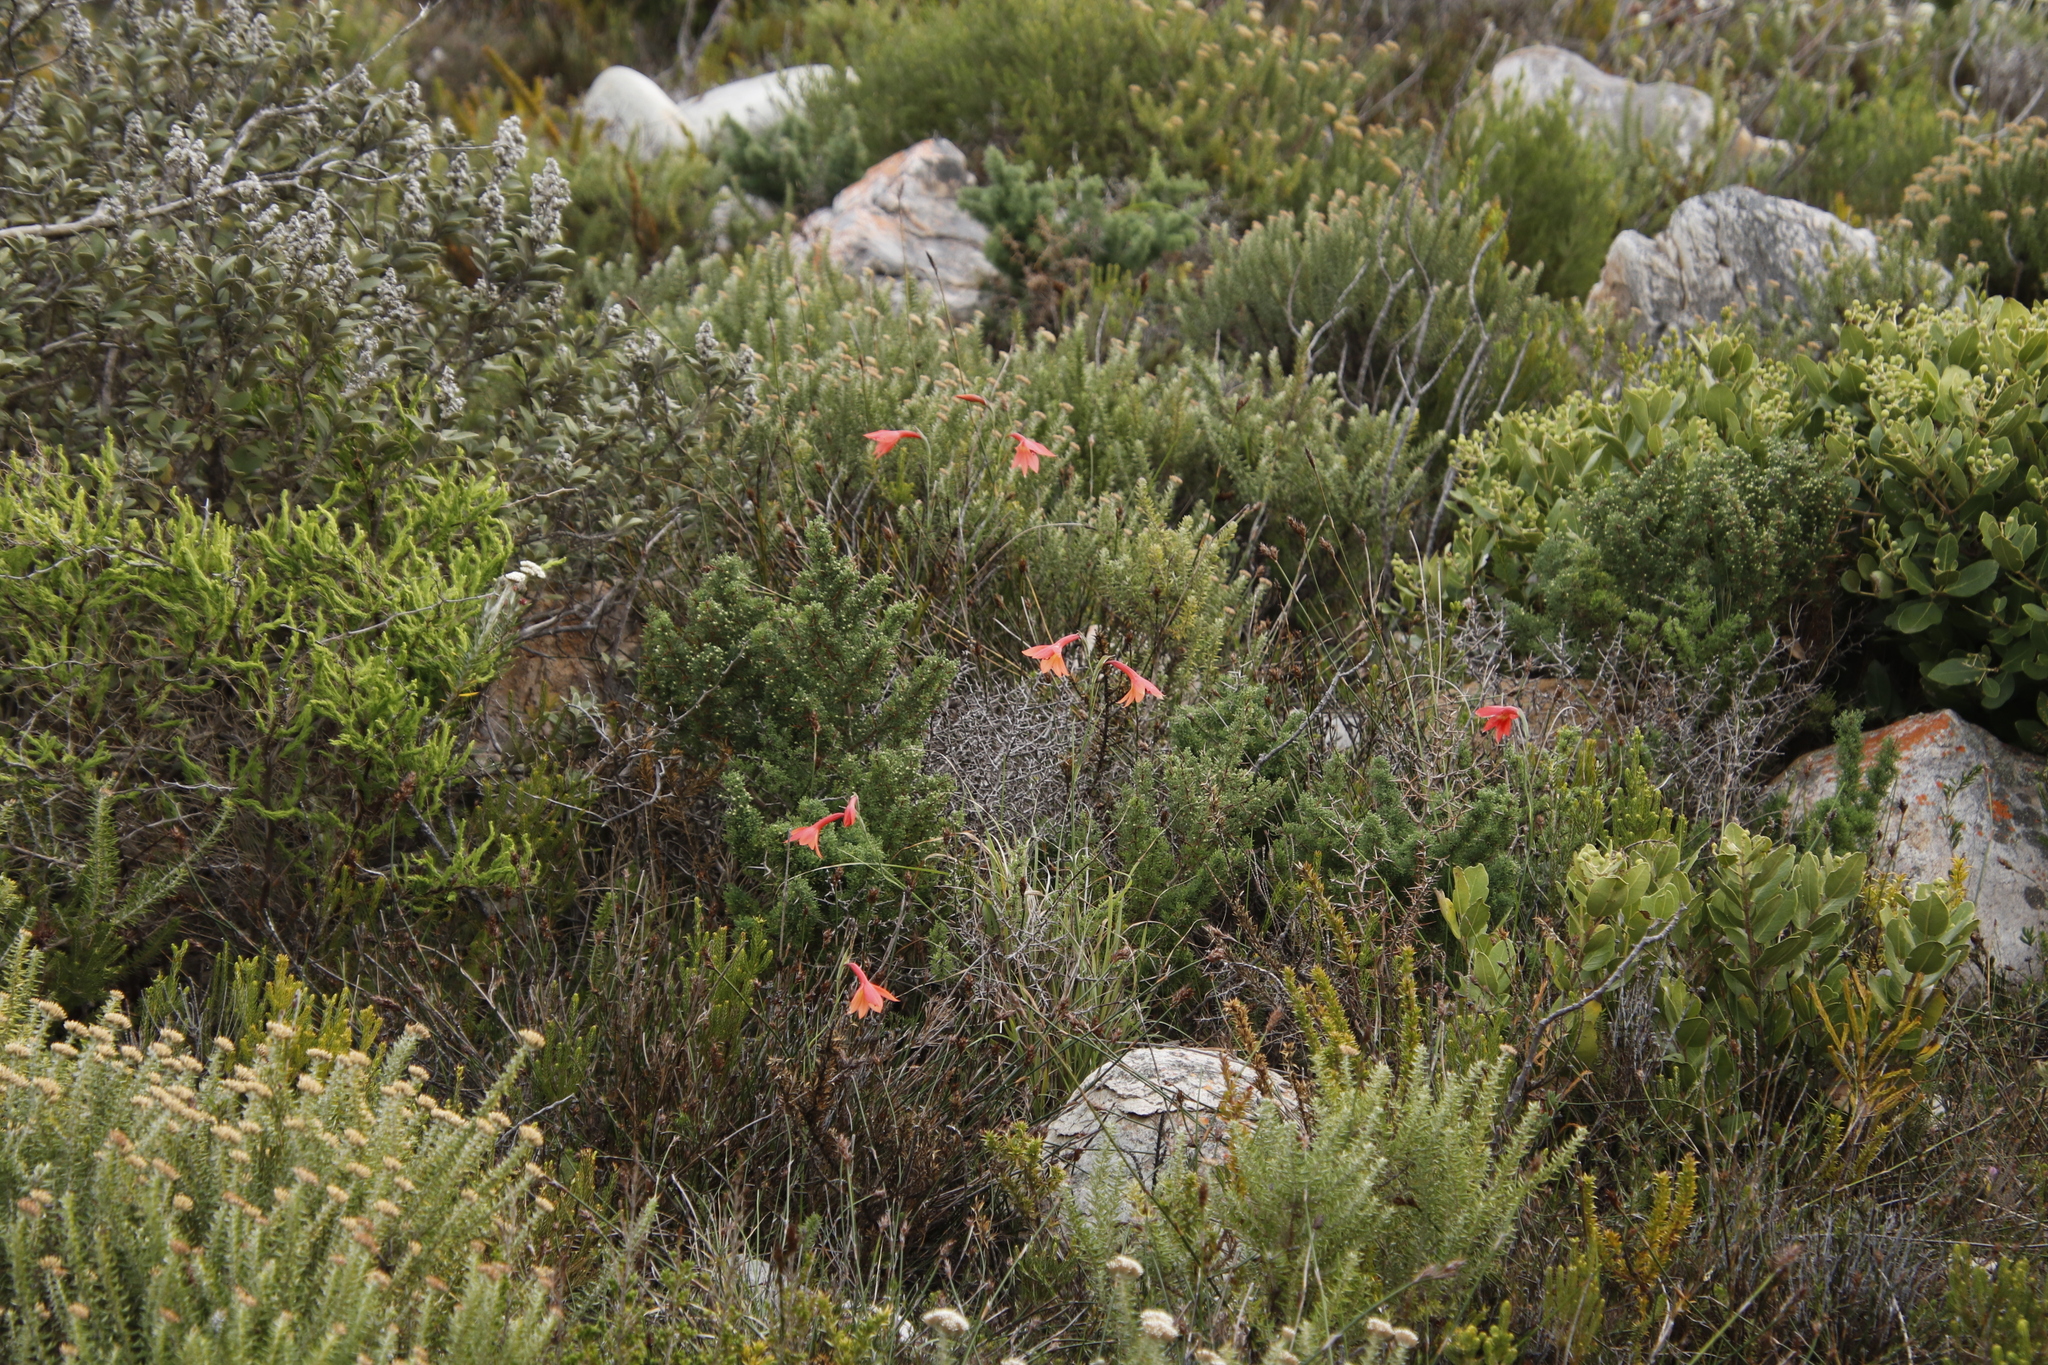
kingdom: Plantae
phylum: Tracheophyta
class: Liliopsida
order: Asparagales
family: Iridaceae
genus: Gladiolus
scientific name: Gladiolus priorii
